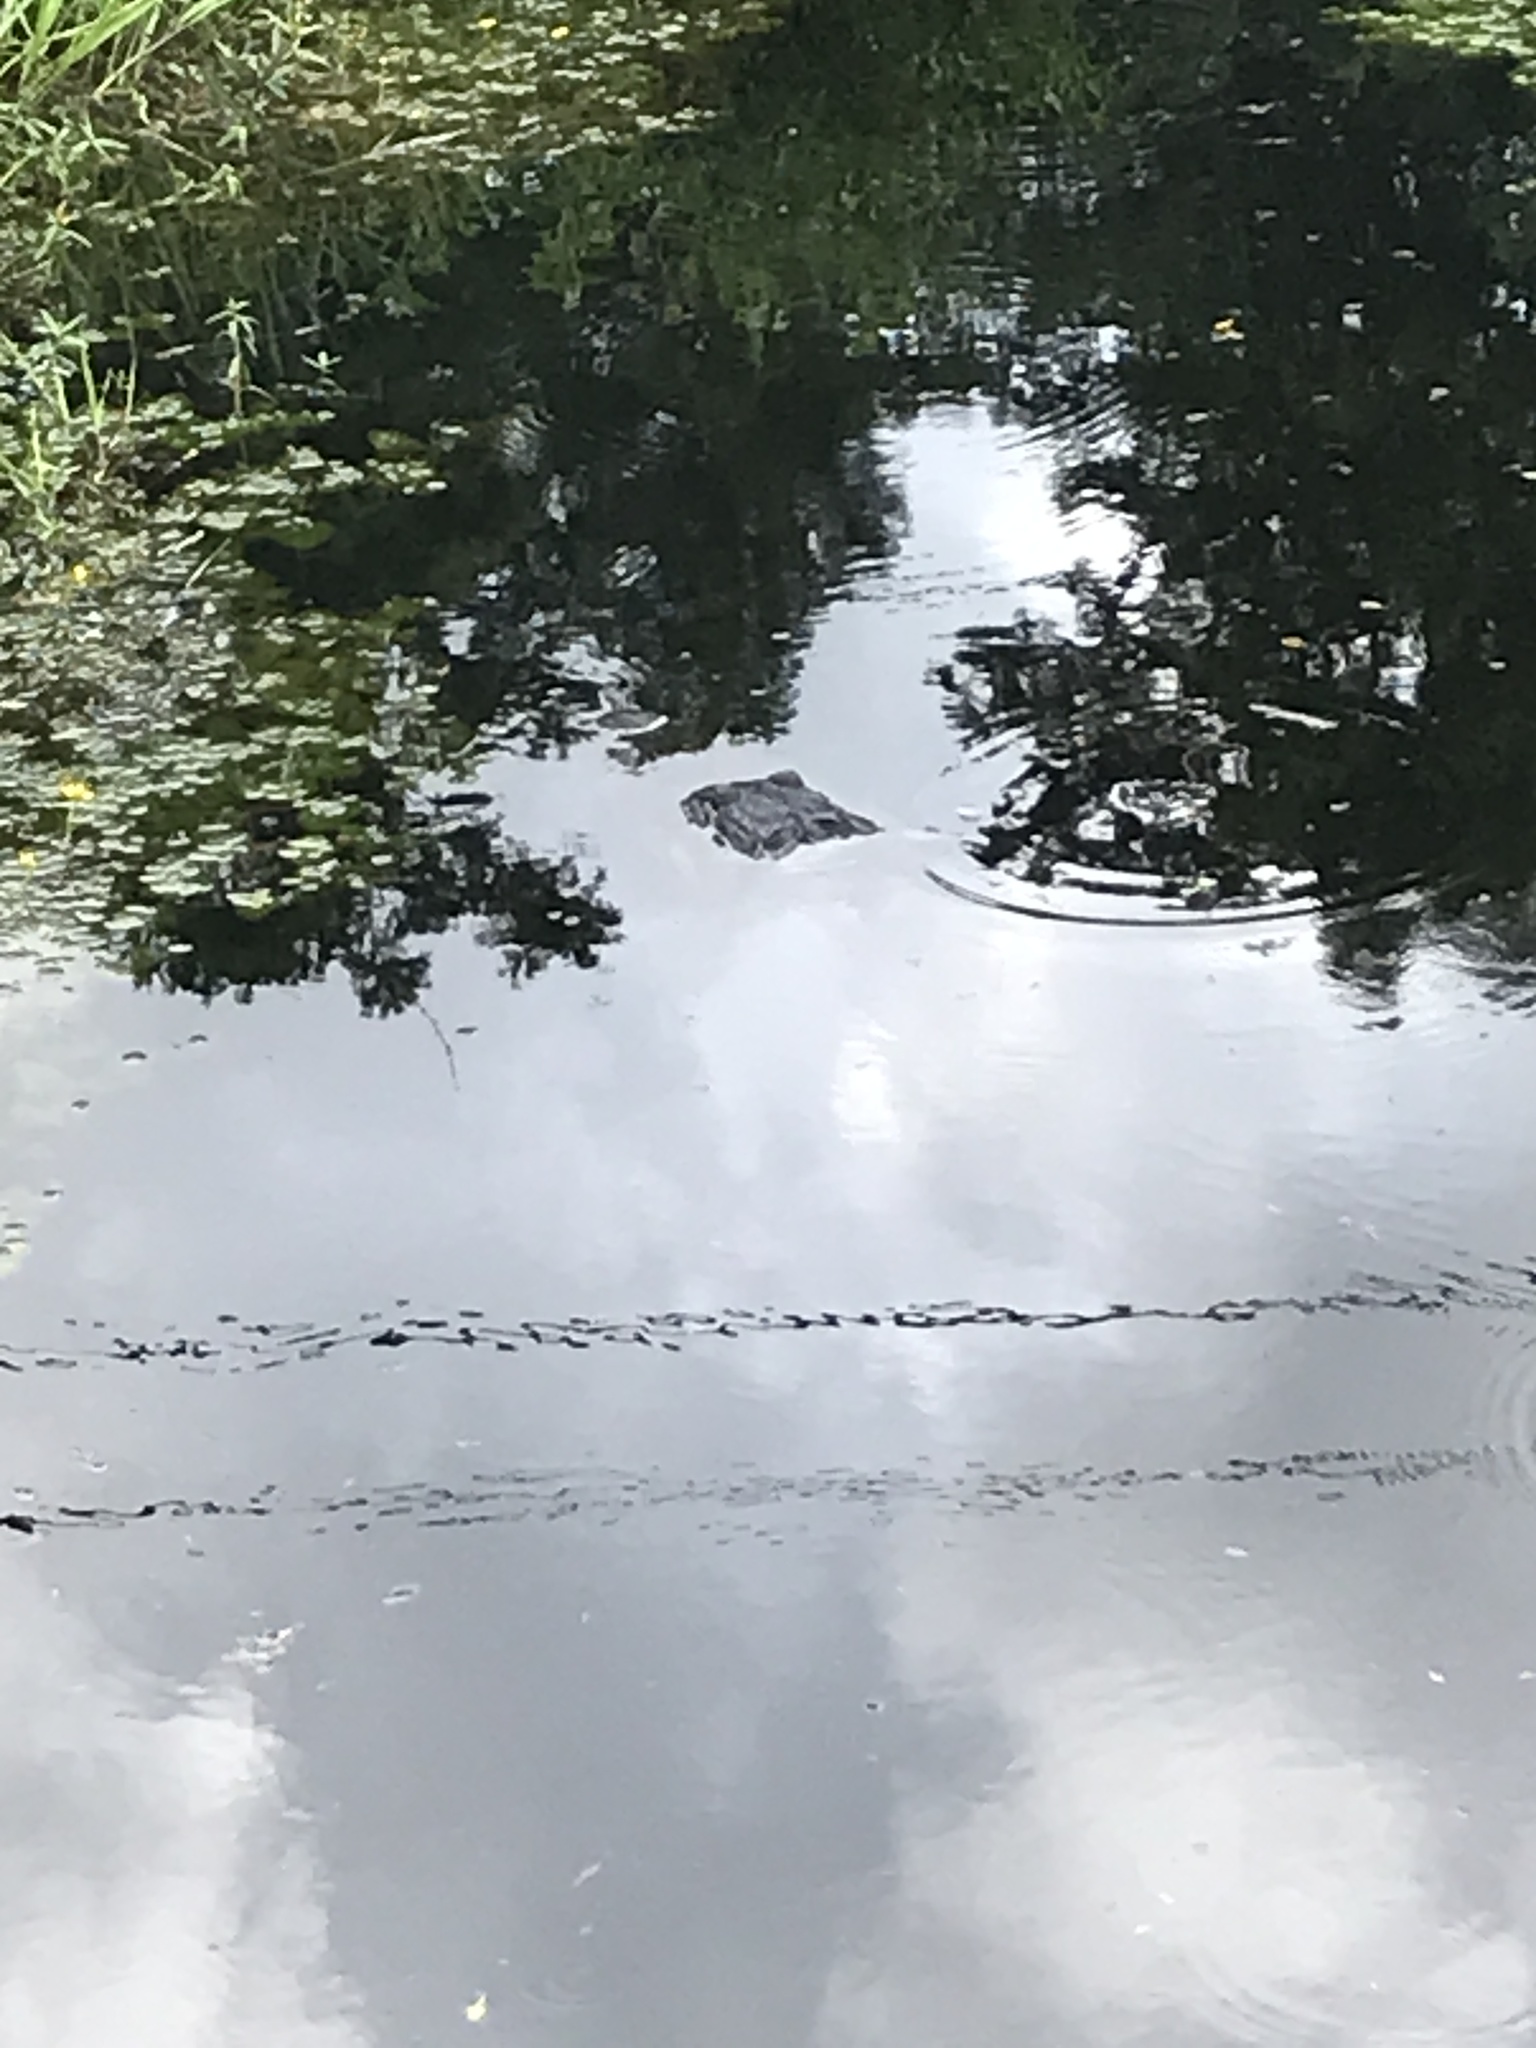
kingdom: Animalia
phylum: Chordata
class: Crocodylia
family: Alligatoridae
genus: Alligator
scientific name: Alligator mississippiensis
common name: American alligator
